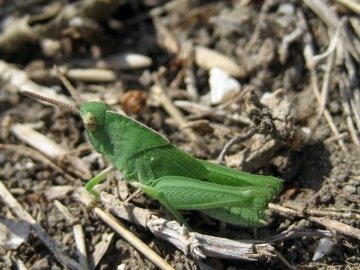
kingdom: Animalia
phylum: Arthropoda
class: Insecta
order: Orthoptera
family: Acrididae
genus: Chortophaga
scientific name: Chortophaga viridifasciata
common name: Green-striped grasshopper
